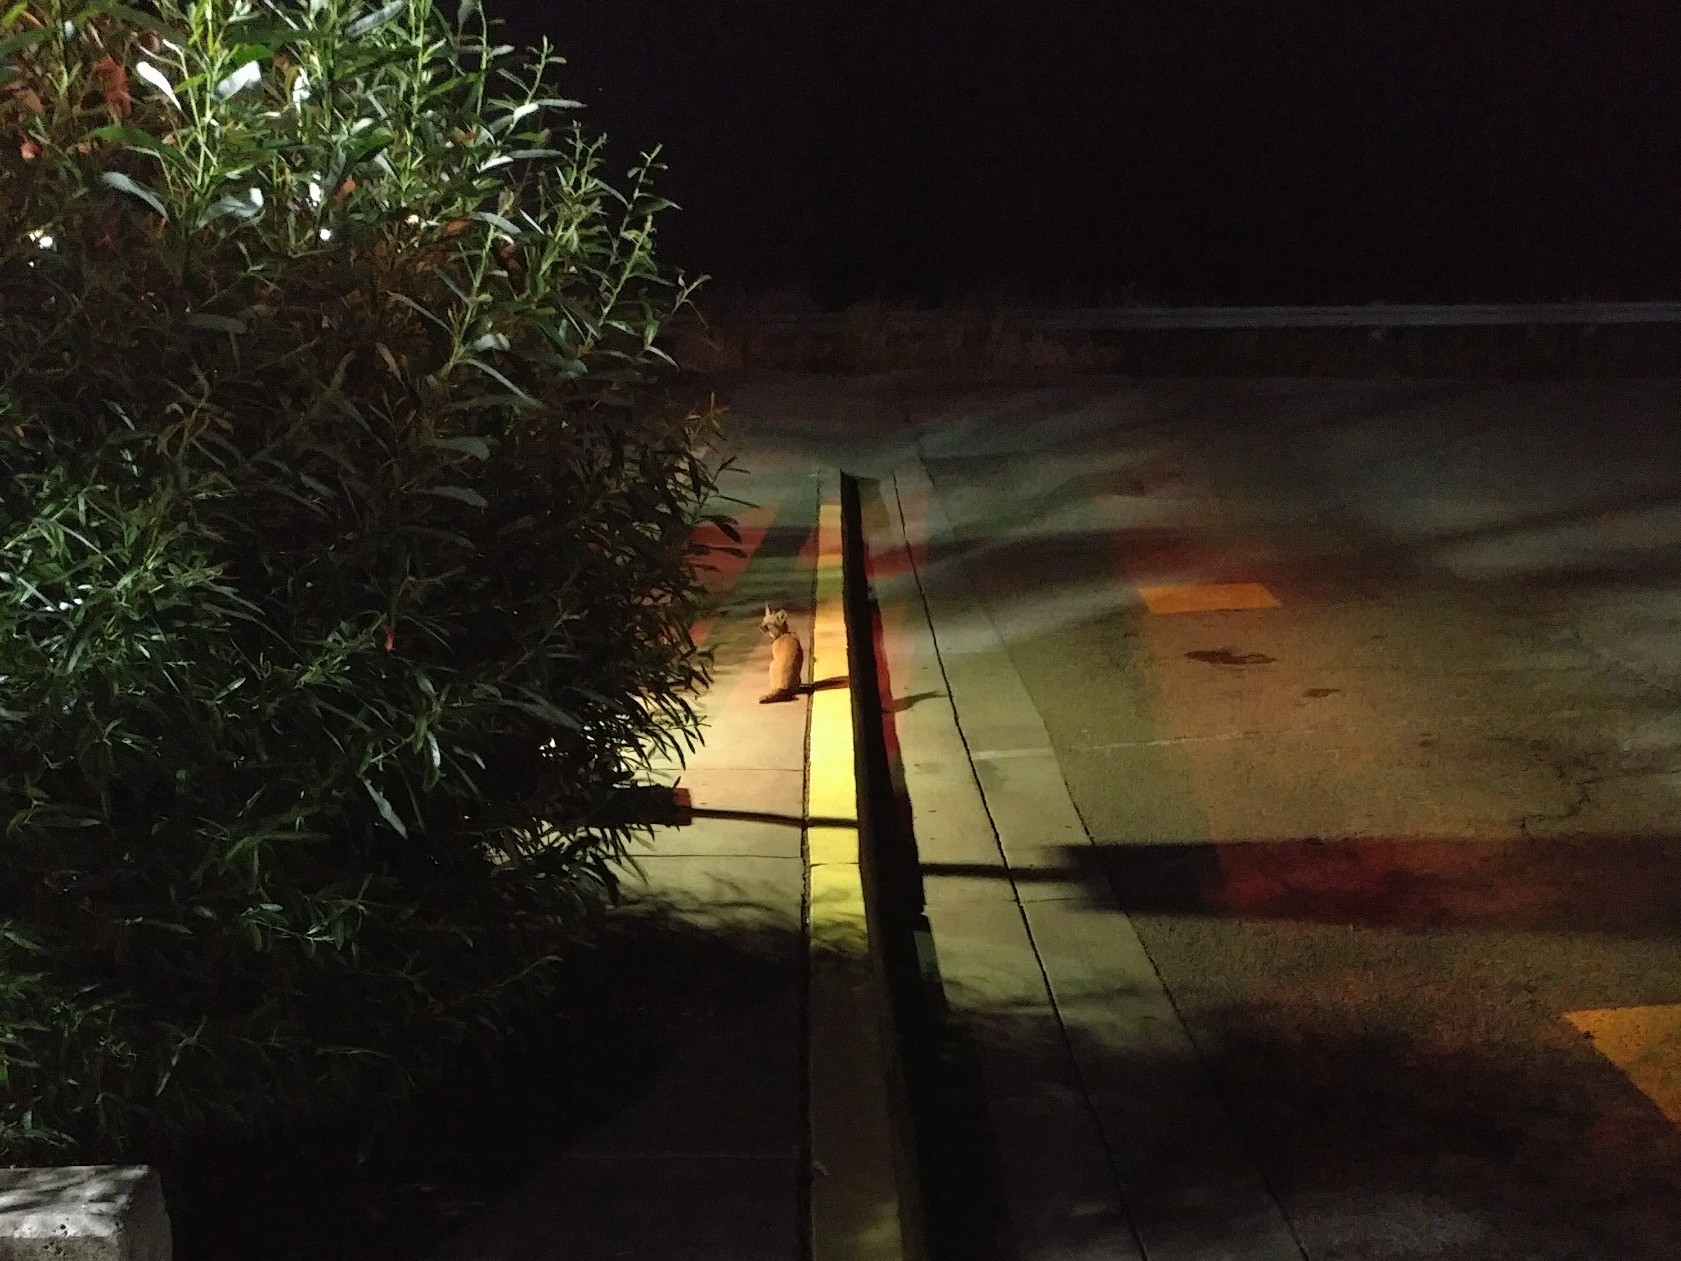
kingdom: Animalia
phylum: Chordata
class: Mammalia
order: Carnivora
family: Canidae
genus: Urocyon
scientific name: Urocyon littoralis
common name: Island gray fox
